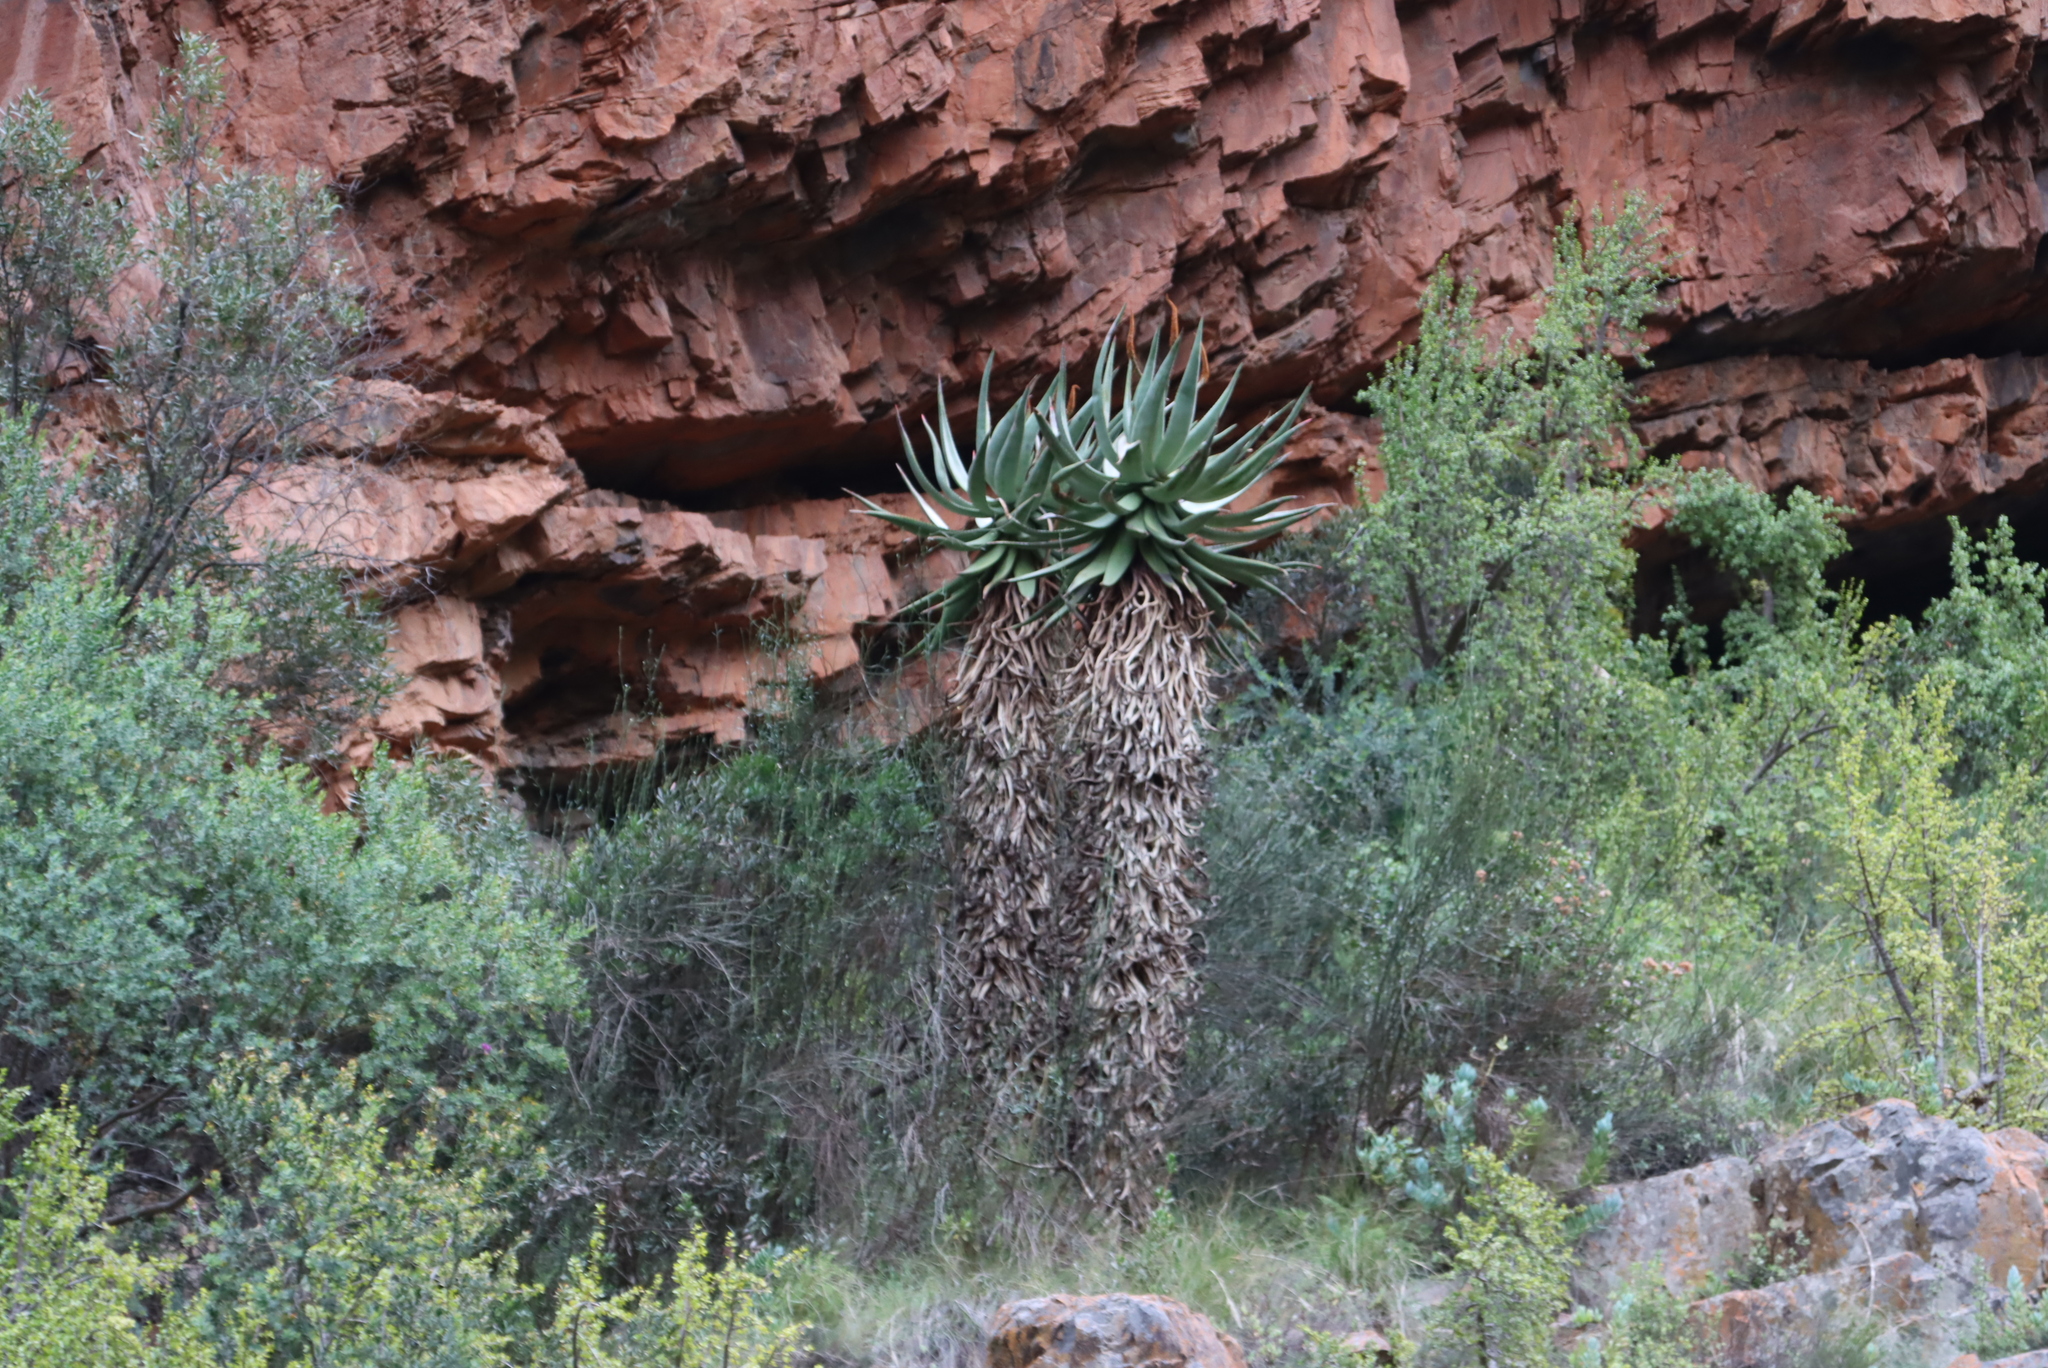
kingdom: Plantae
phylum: Tracheophyta
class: Liliopsida
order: Asparagales
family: Asphodelaceae
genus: Aloe
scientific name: Aloe ferox
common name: Bitter aloe
